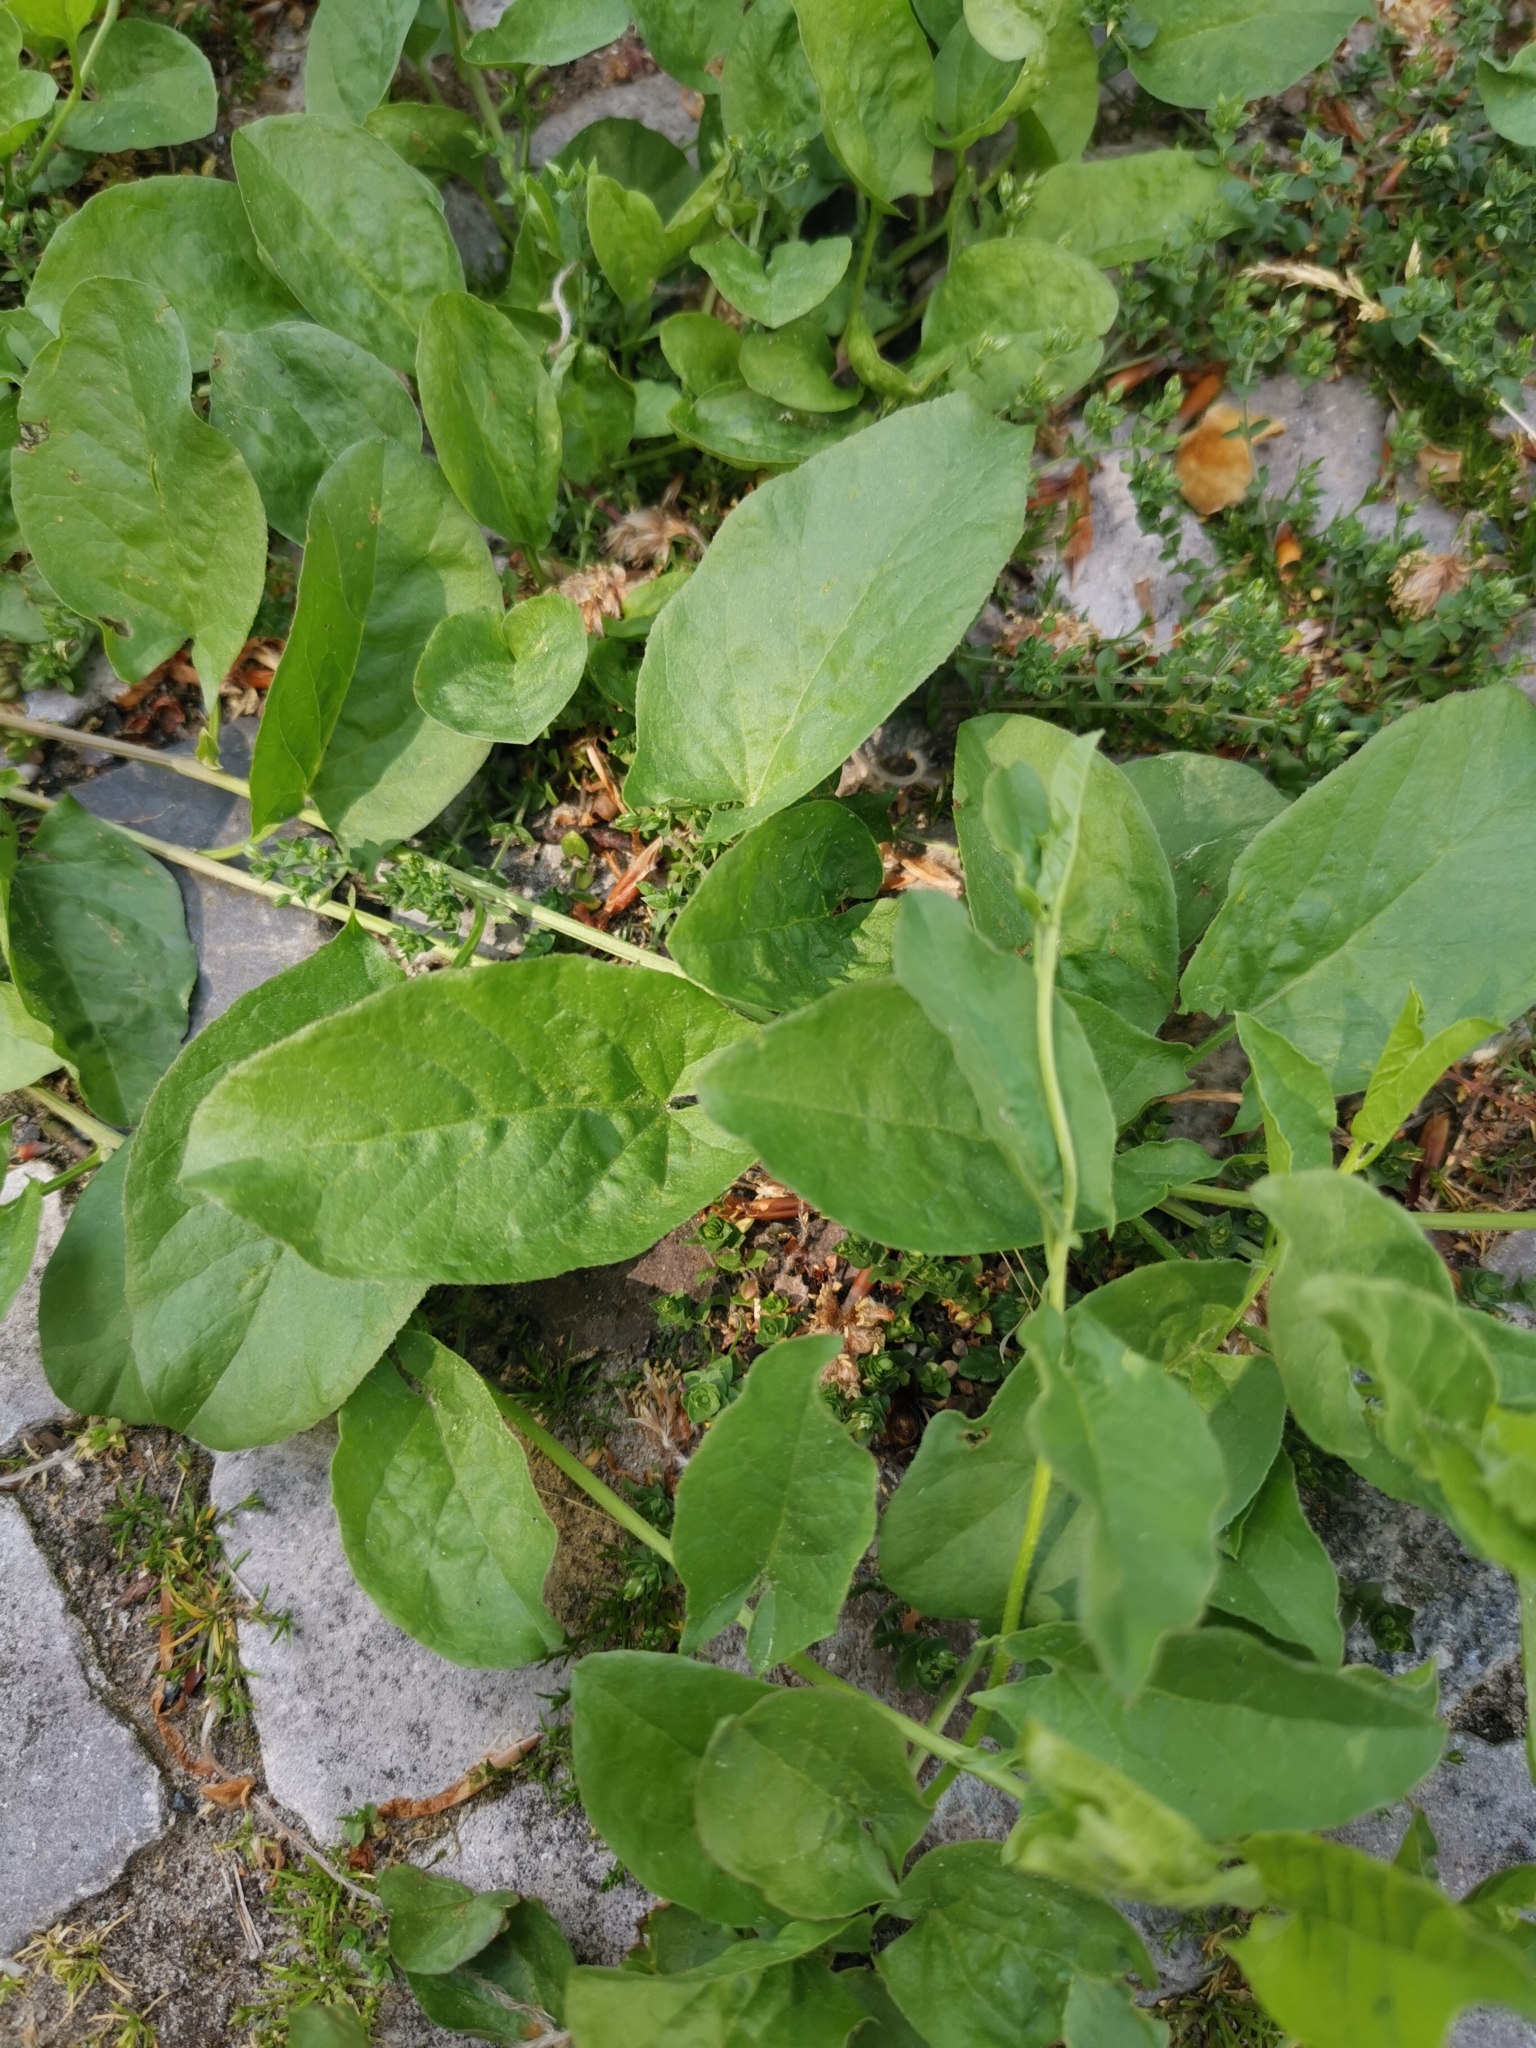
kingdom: Plantae
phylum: Tracheophyta
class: Magnoliopsida
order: Solanales
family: Convolvulaceae
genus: Convolvulus
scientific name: Convolvulus arvensis
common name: Field bindweed
